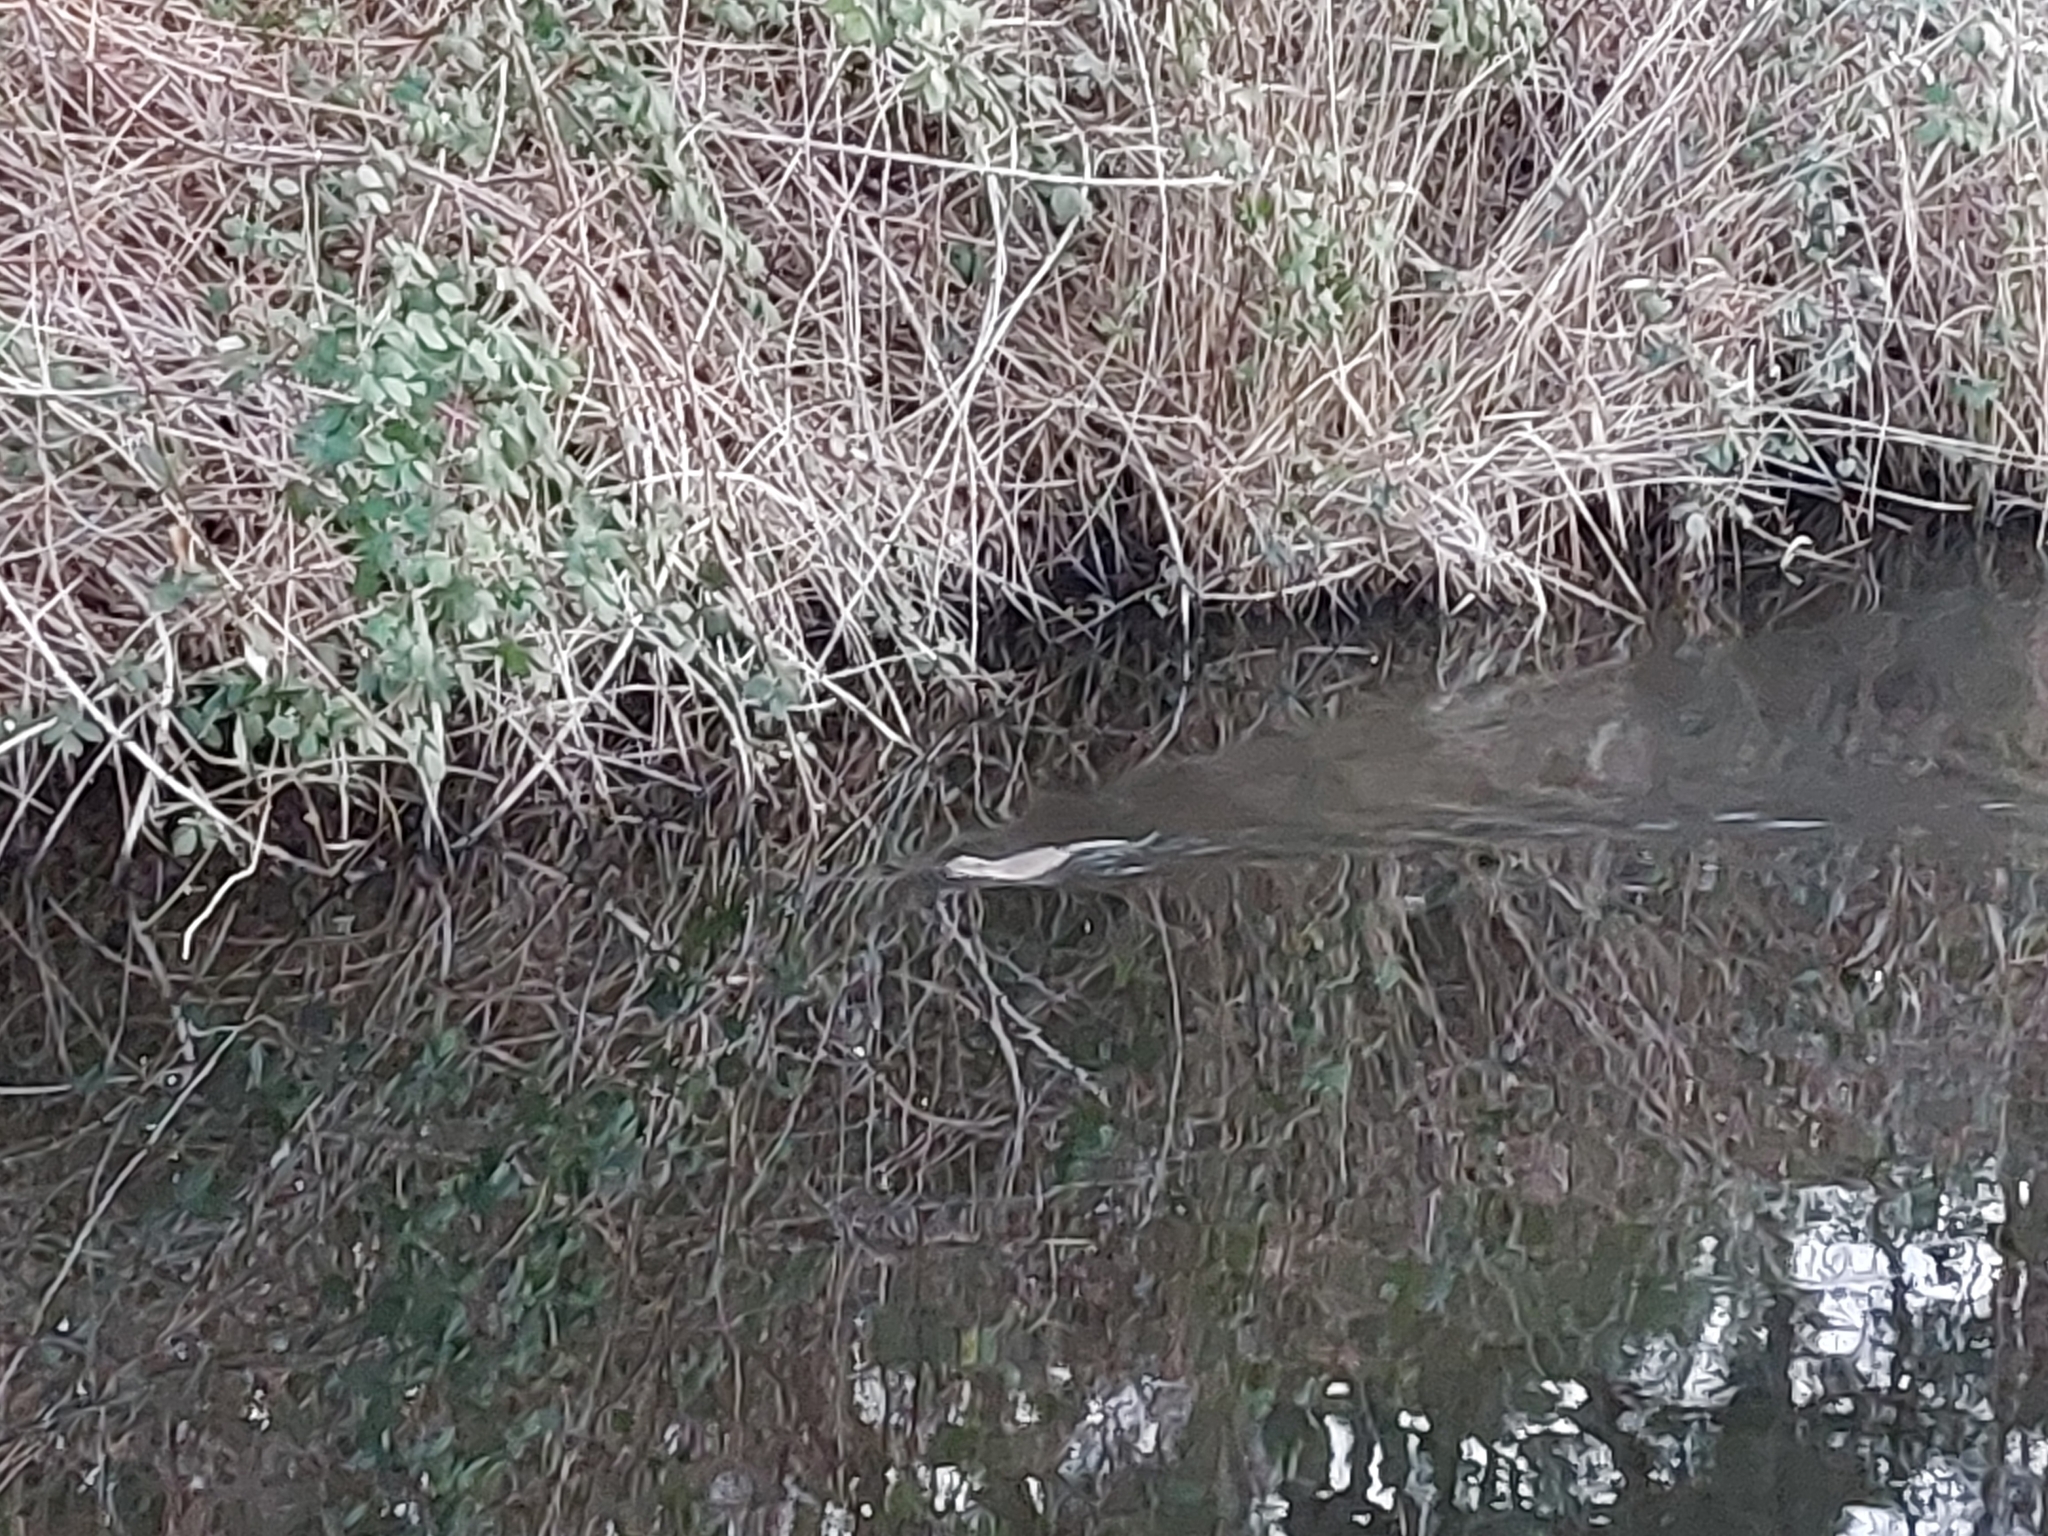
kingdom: Animalia
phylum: Chordata
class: Mammalia
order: Rodentia
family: Cricetidae
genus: Ondatra
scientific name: Ondatra zibethicus
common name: Muskrat
